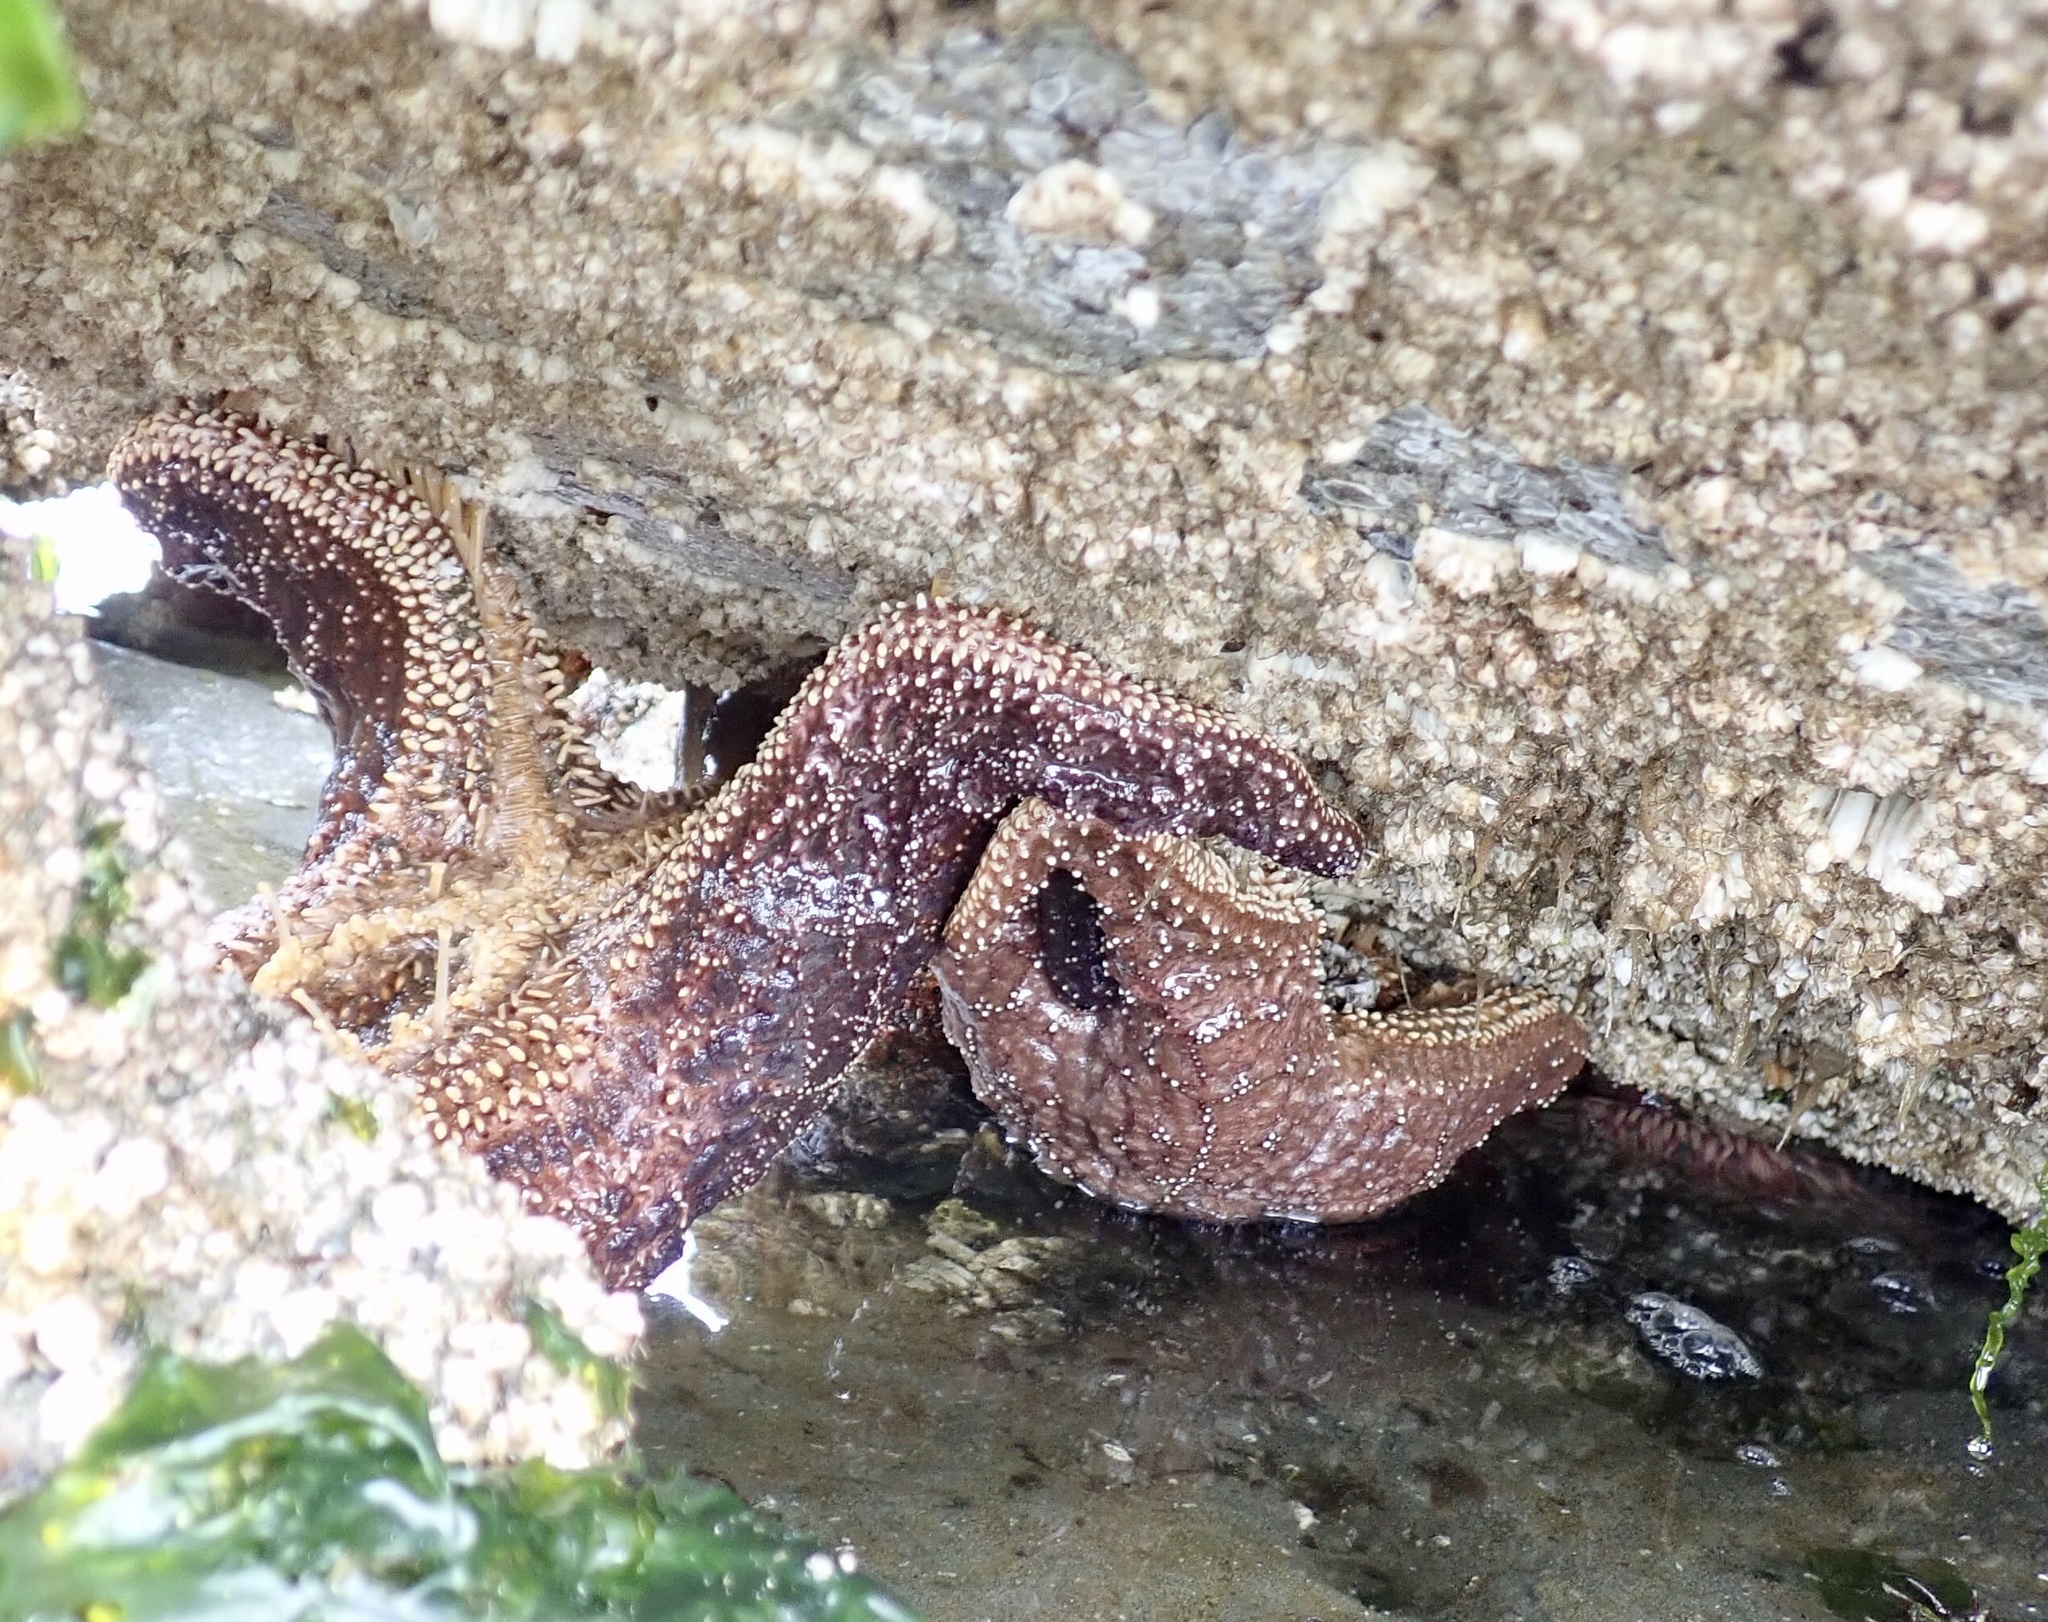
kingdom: Animalia
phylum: Echinodermata
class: Asteroidea
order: Forcipulatida
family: Asteriidae
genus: Pisaster
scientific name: Pisaster ochraceus
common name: Ochre stars
